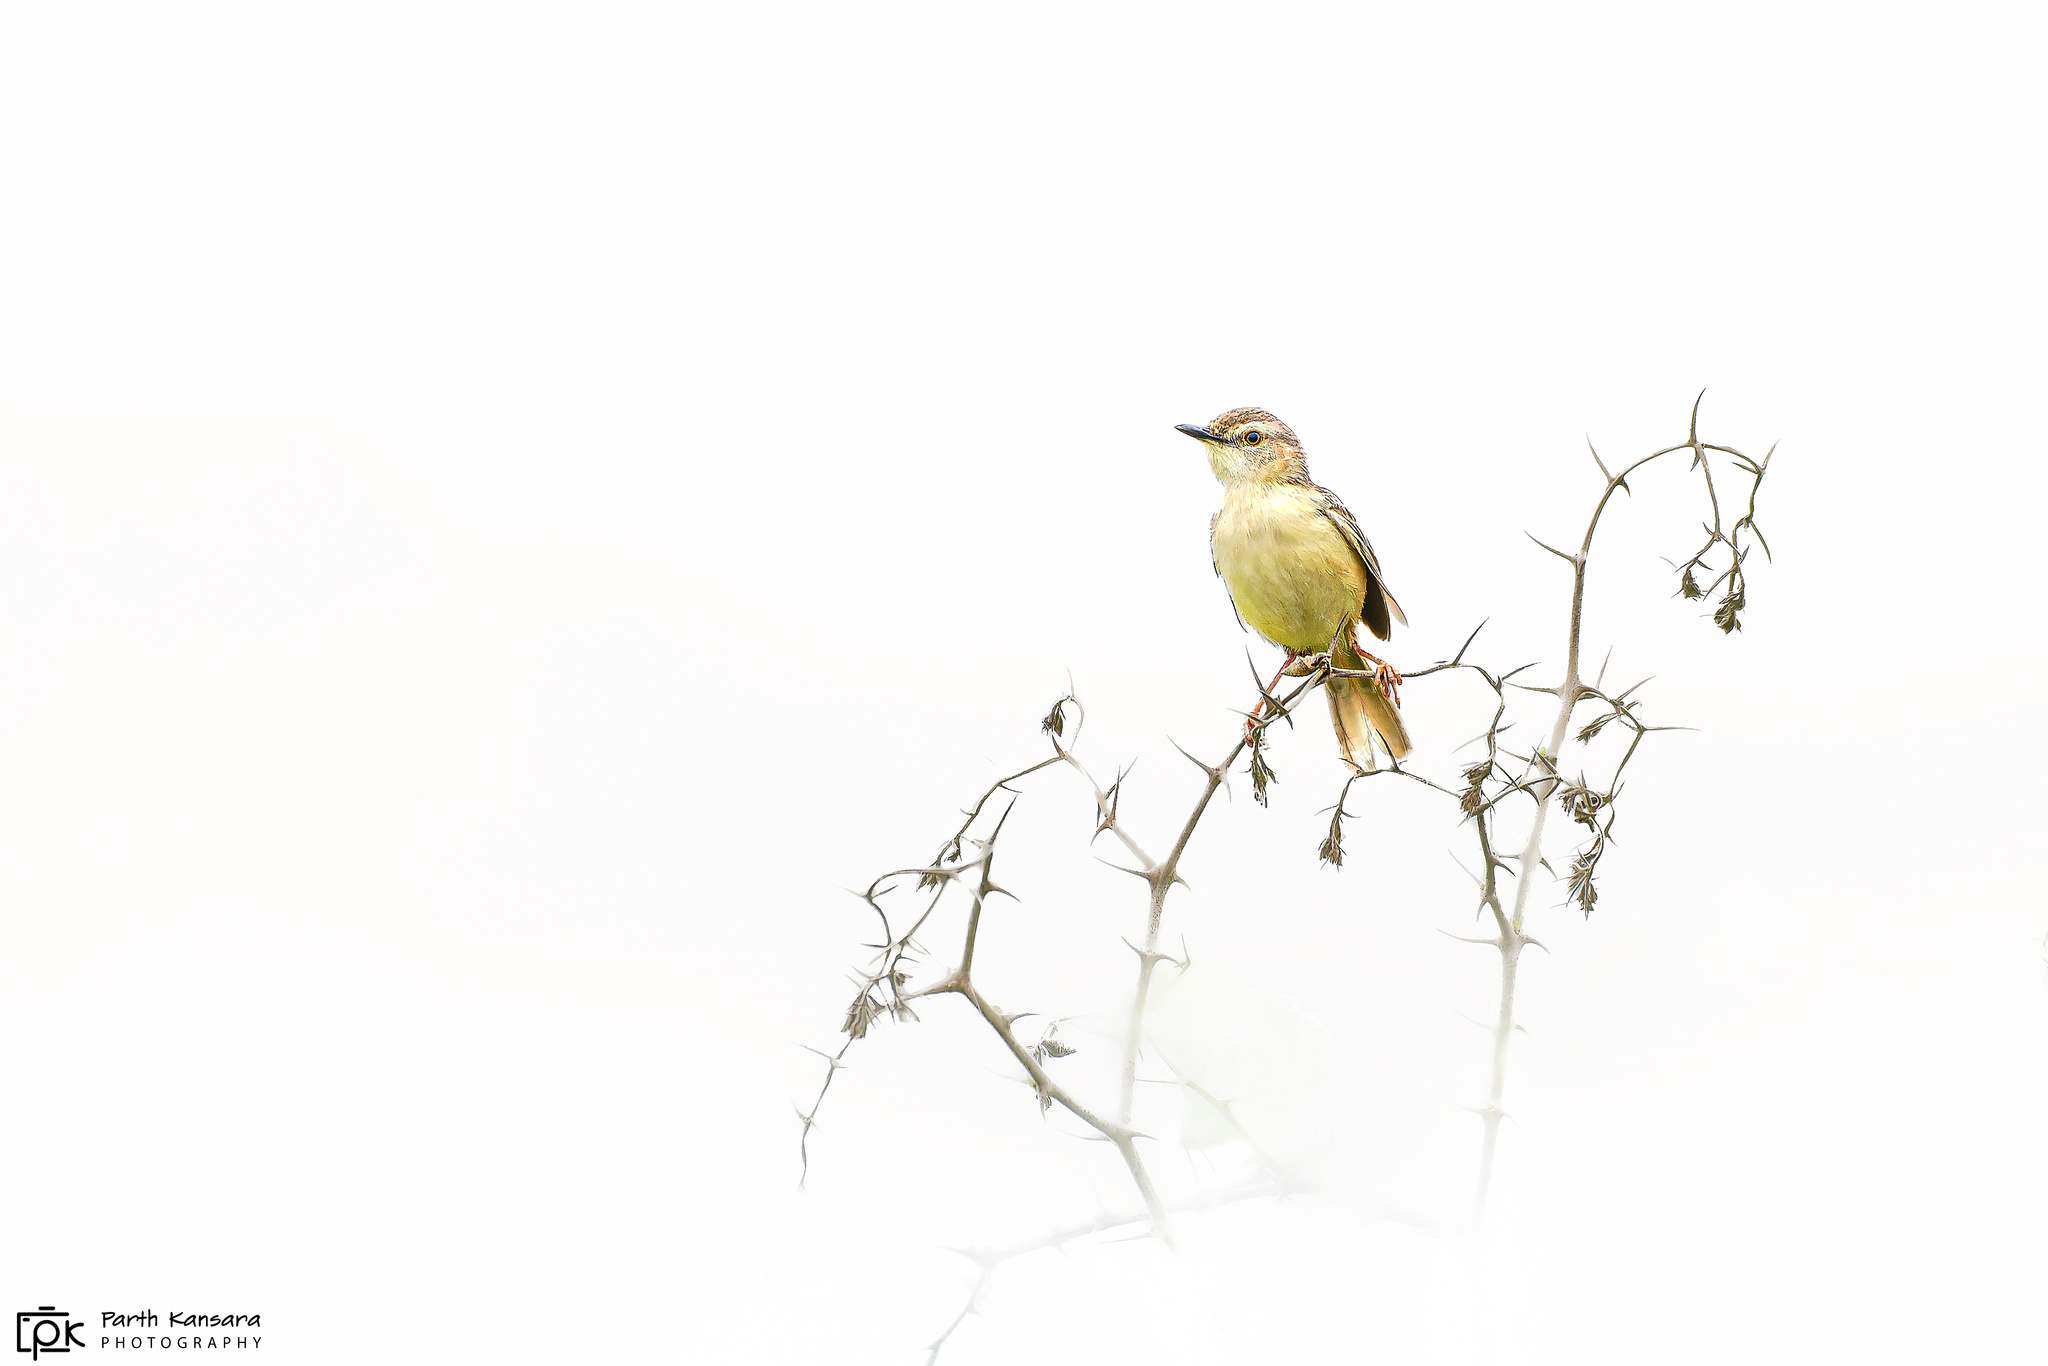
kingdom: Animalia
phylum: Chordata
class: Aves
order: Passeriformes
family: Cisticolidae
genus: Prinia
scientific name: Prinia inornata
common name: Plain prinia
